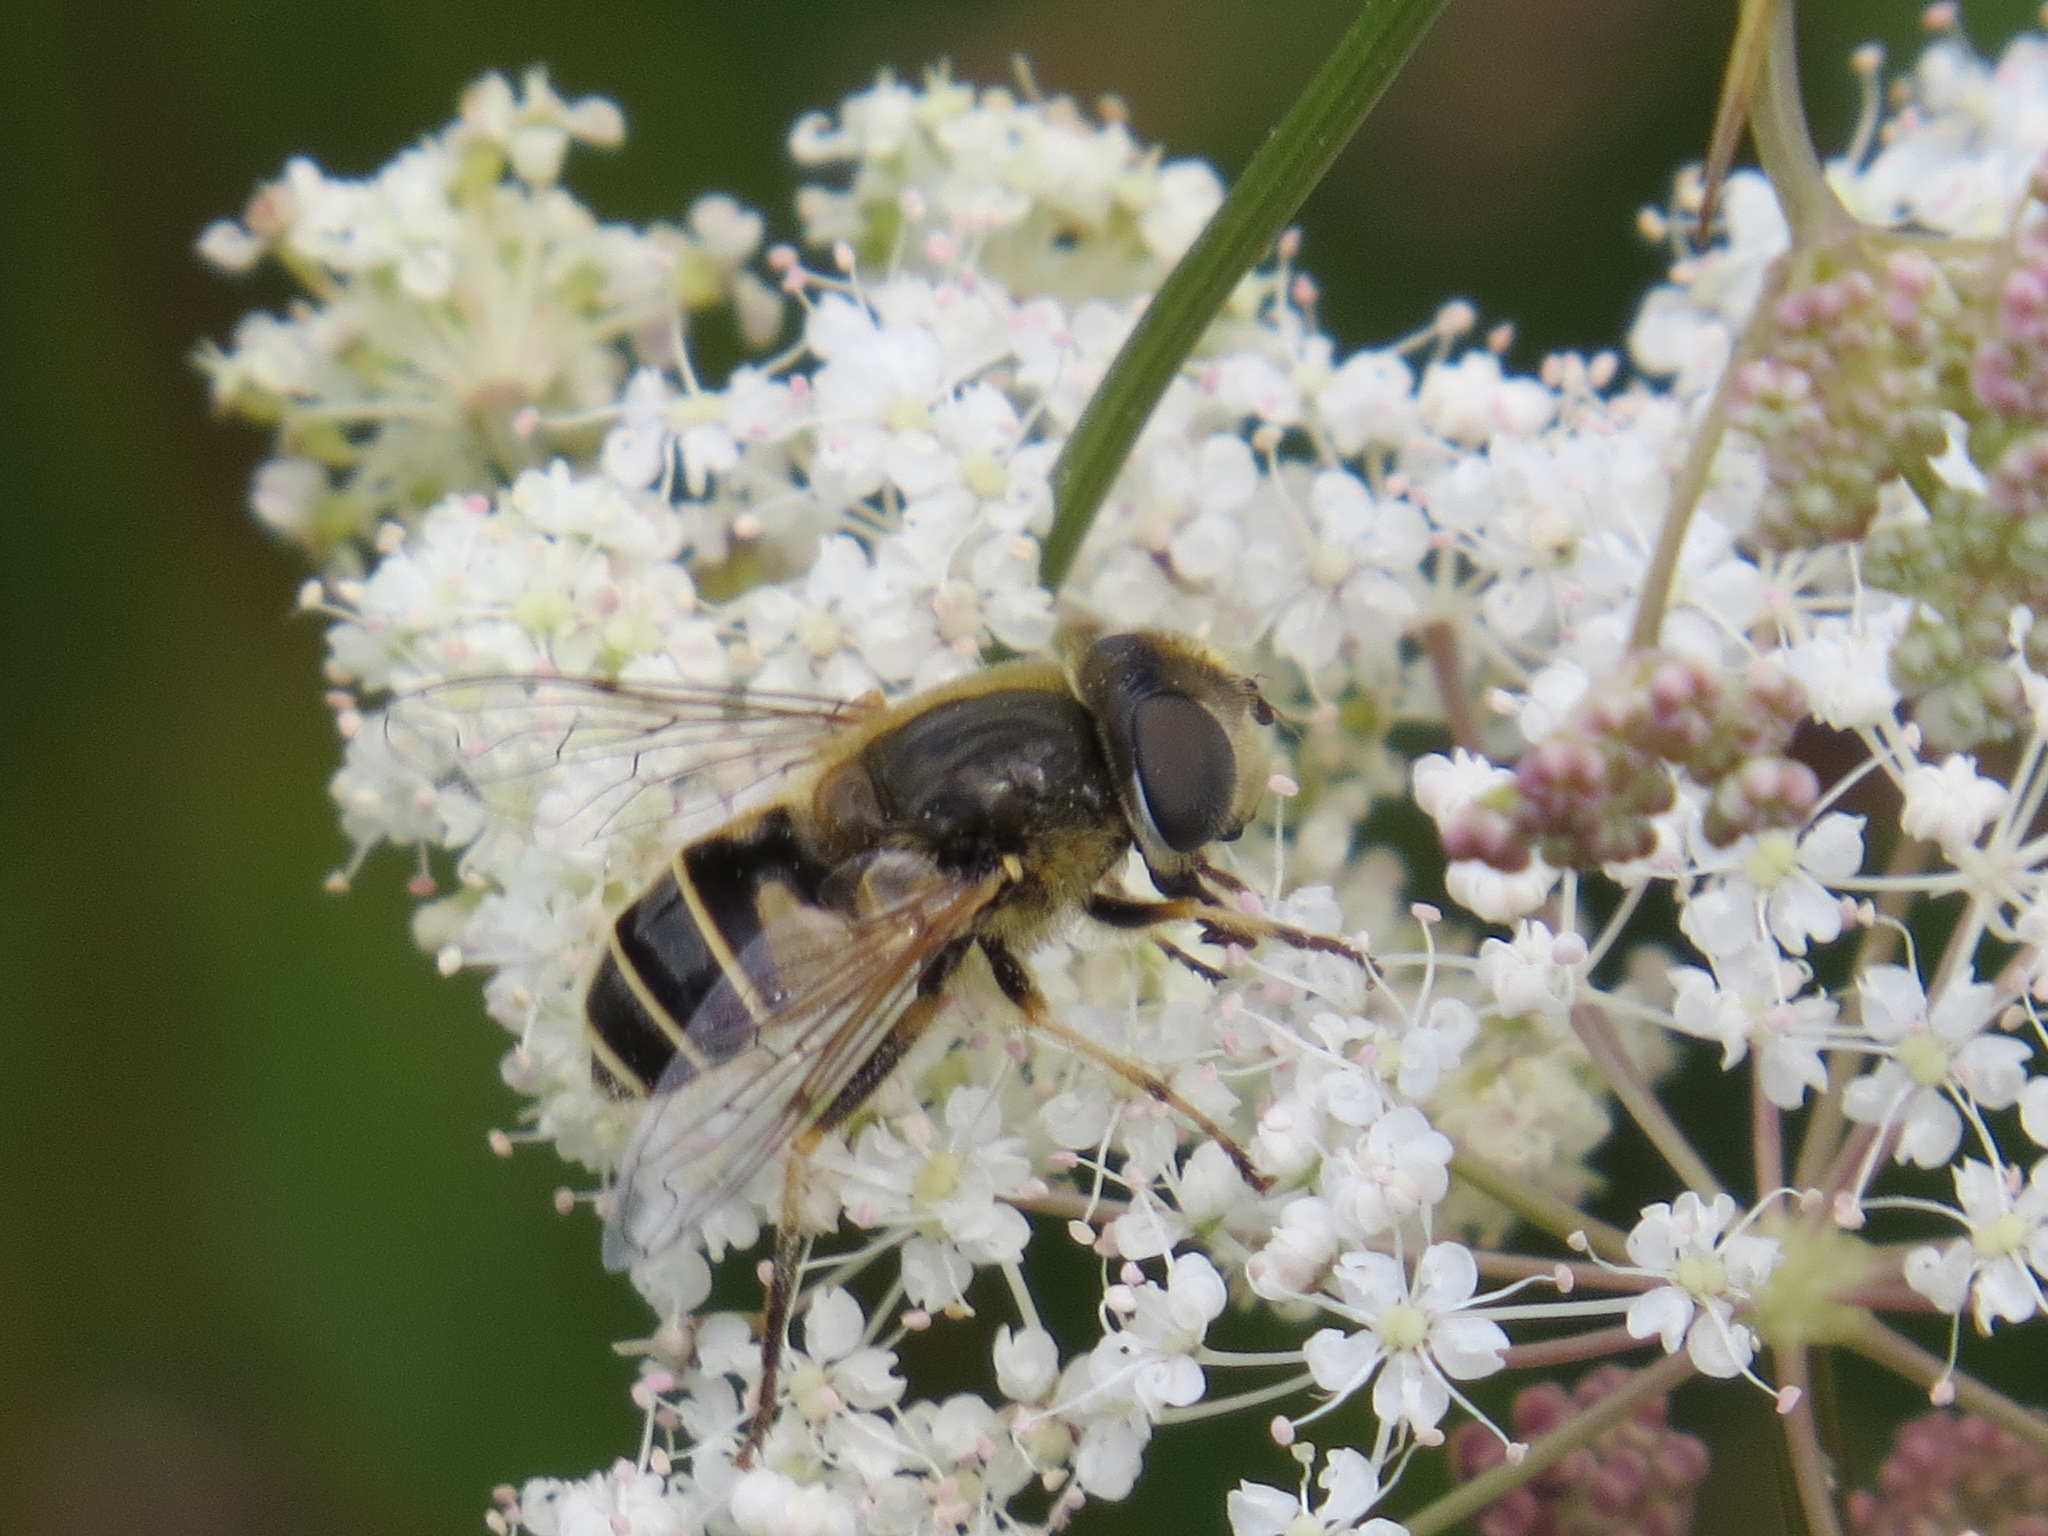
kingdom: Animalia
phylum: Arthropoda
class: Insecta
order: Diptera
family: Syrphidae
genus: Eristalis
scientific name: Eristalis hirta
